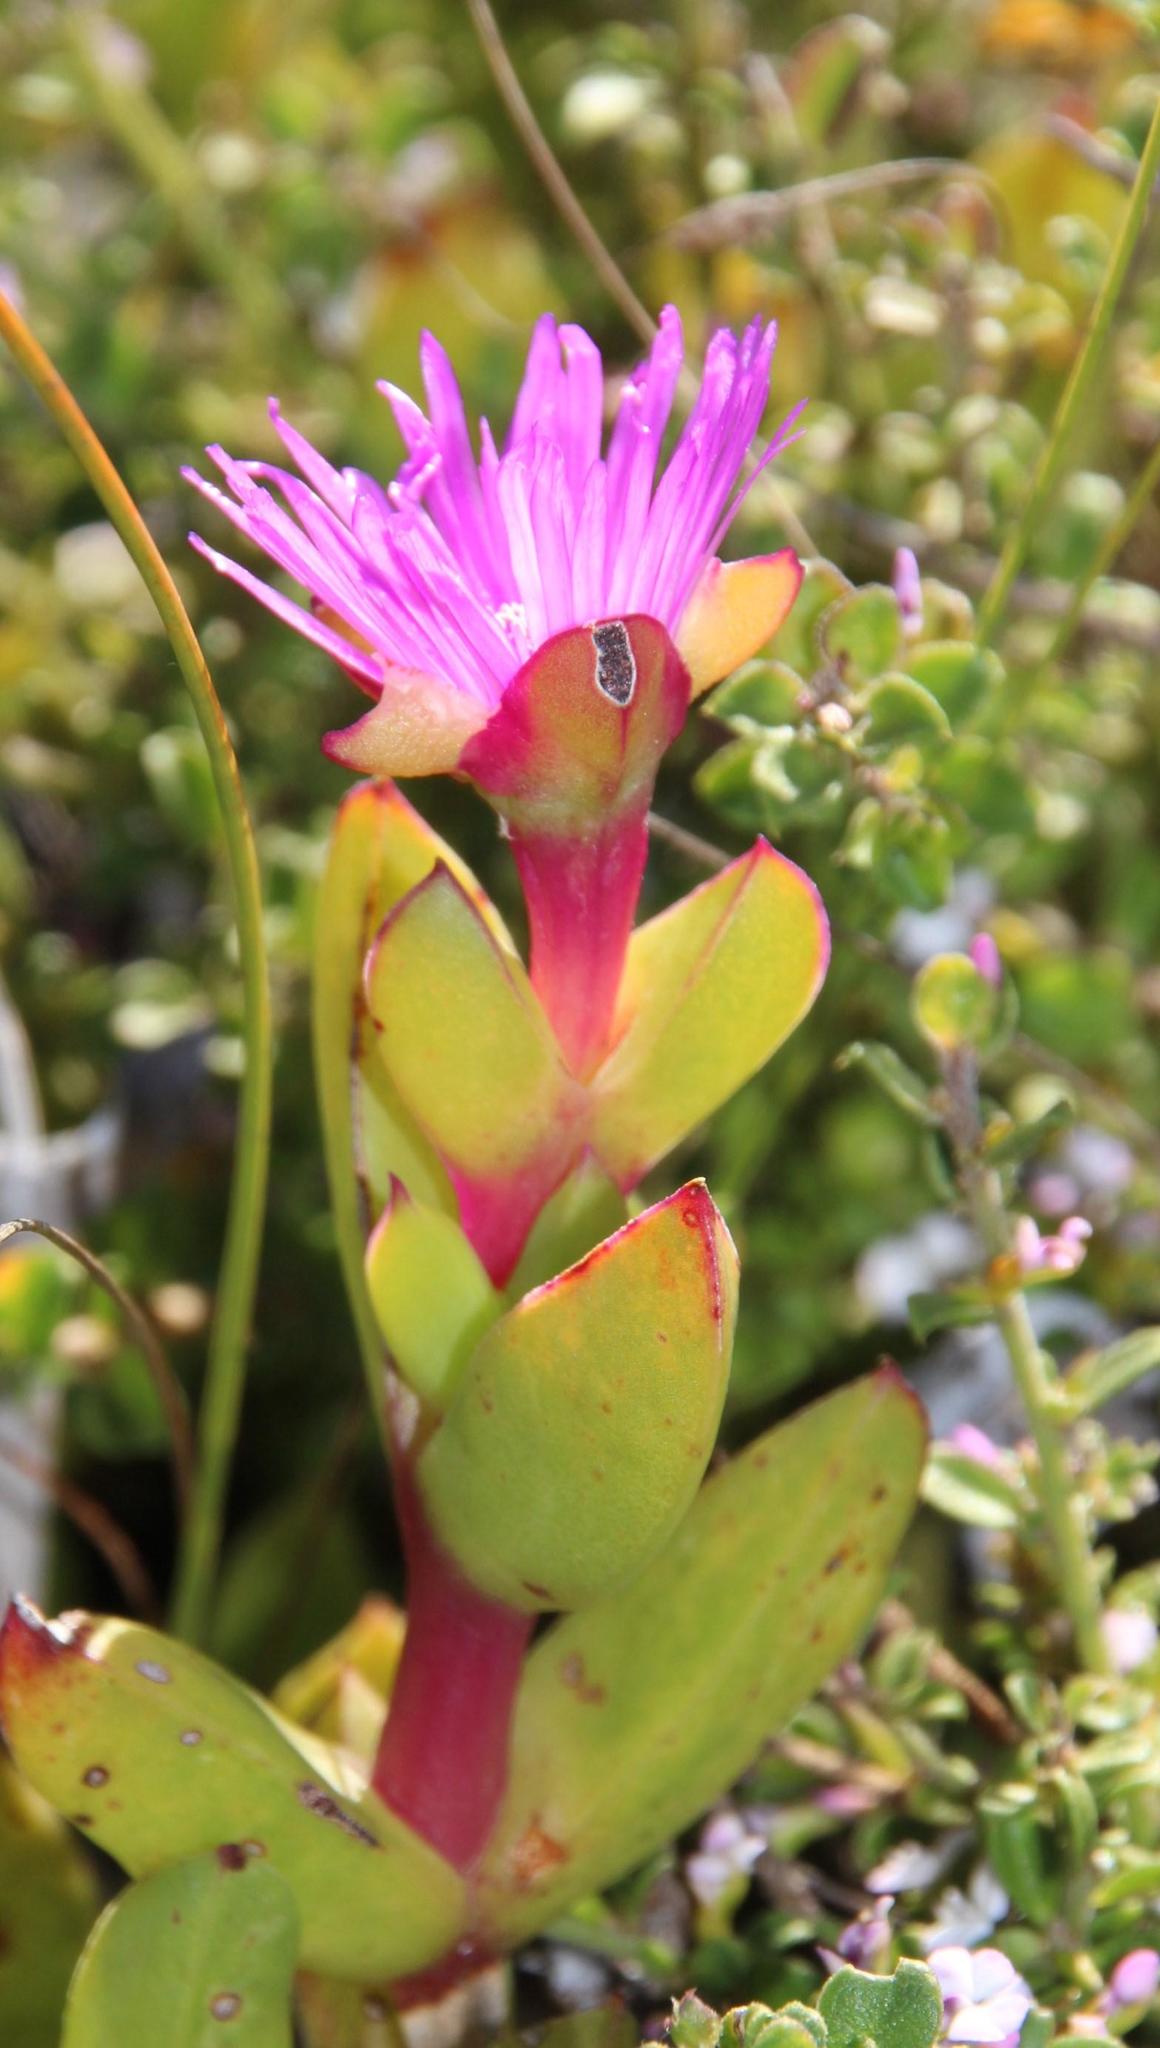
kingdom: Plantae
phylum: Tracheophyta
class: Magnoliopsida
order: Caryophyllales
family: Aizoaceae
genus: Ruschia
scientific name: Ruschia rubricaulis
